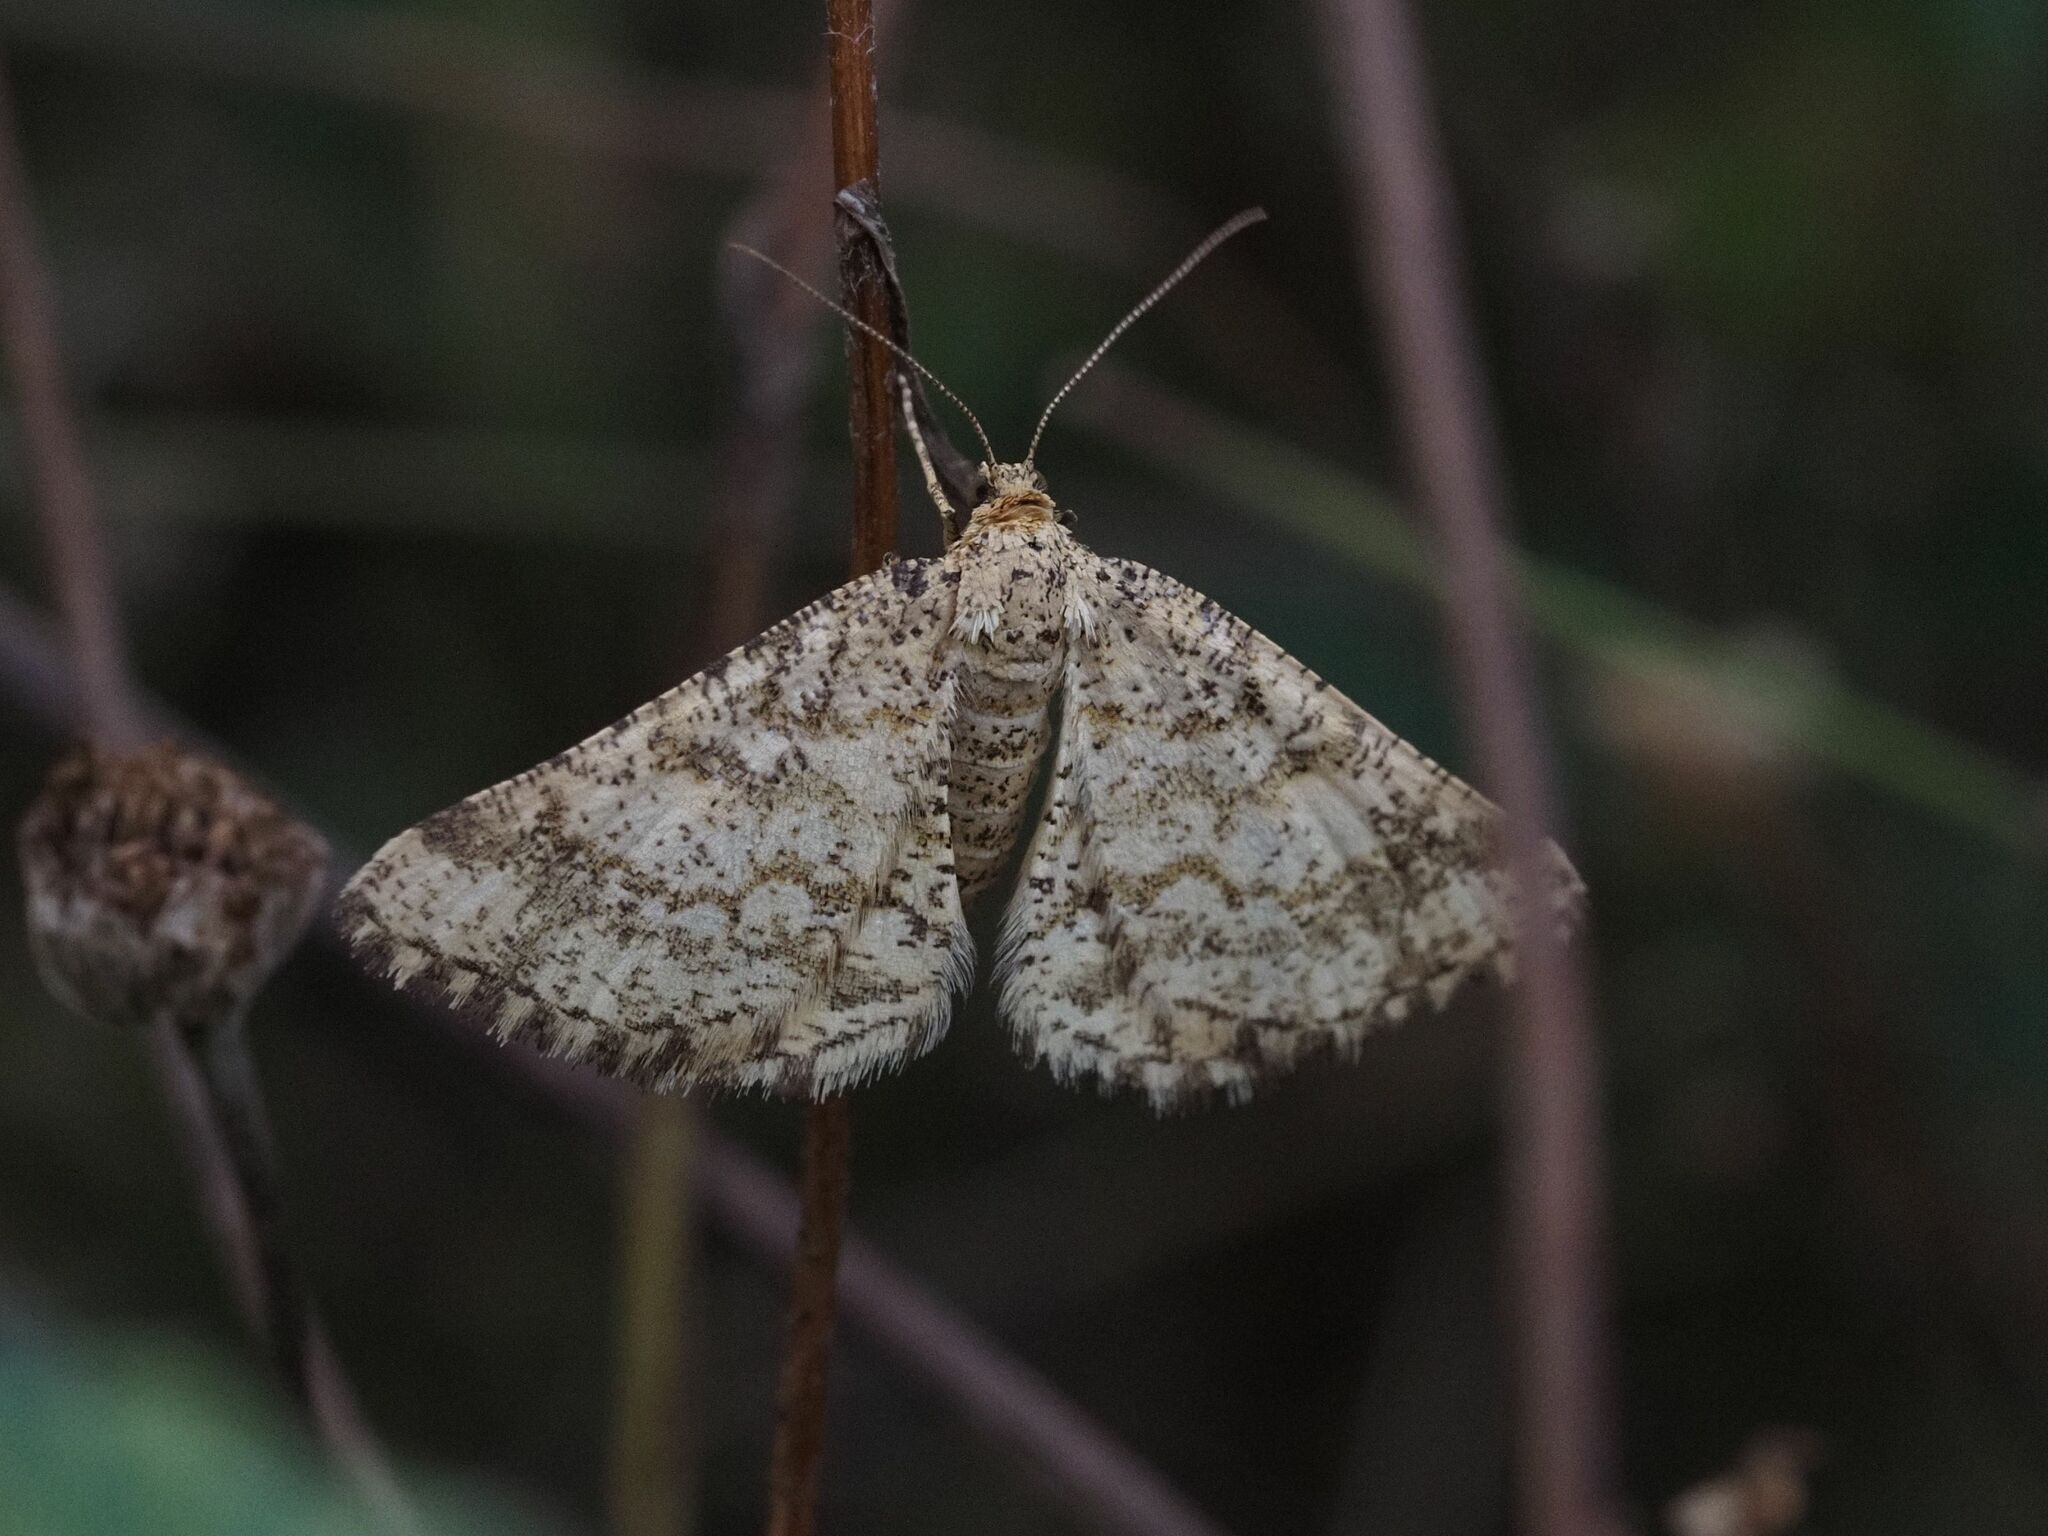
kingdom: Animalia
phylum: Arthropoda
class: Insecta
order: Lepidoptera
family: Geometridae
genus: Heliomata
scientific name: Heliomata glarearia
